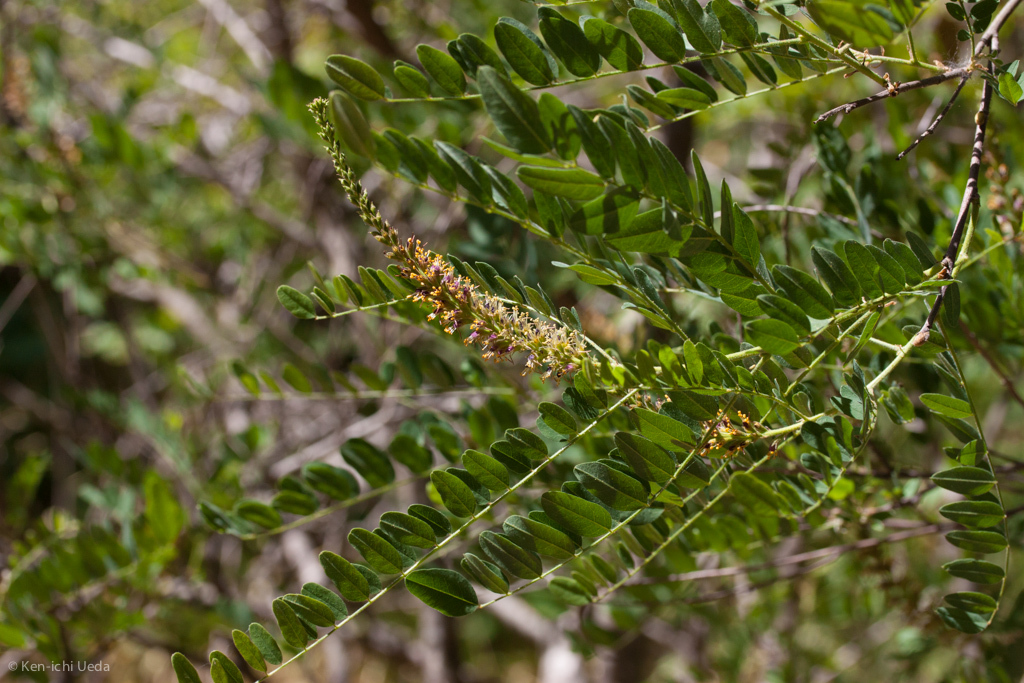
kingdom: Plantae
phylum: Tracheophyta
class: Magnoliopsida
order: Fabales
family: Fabaceae
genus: Amorpha
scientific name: Amorpha californica
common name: California indigobush
